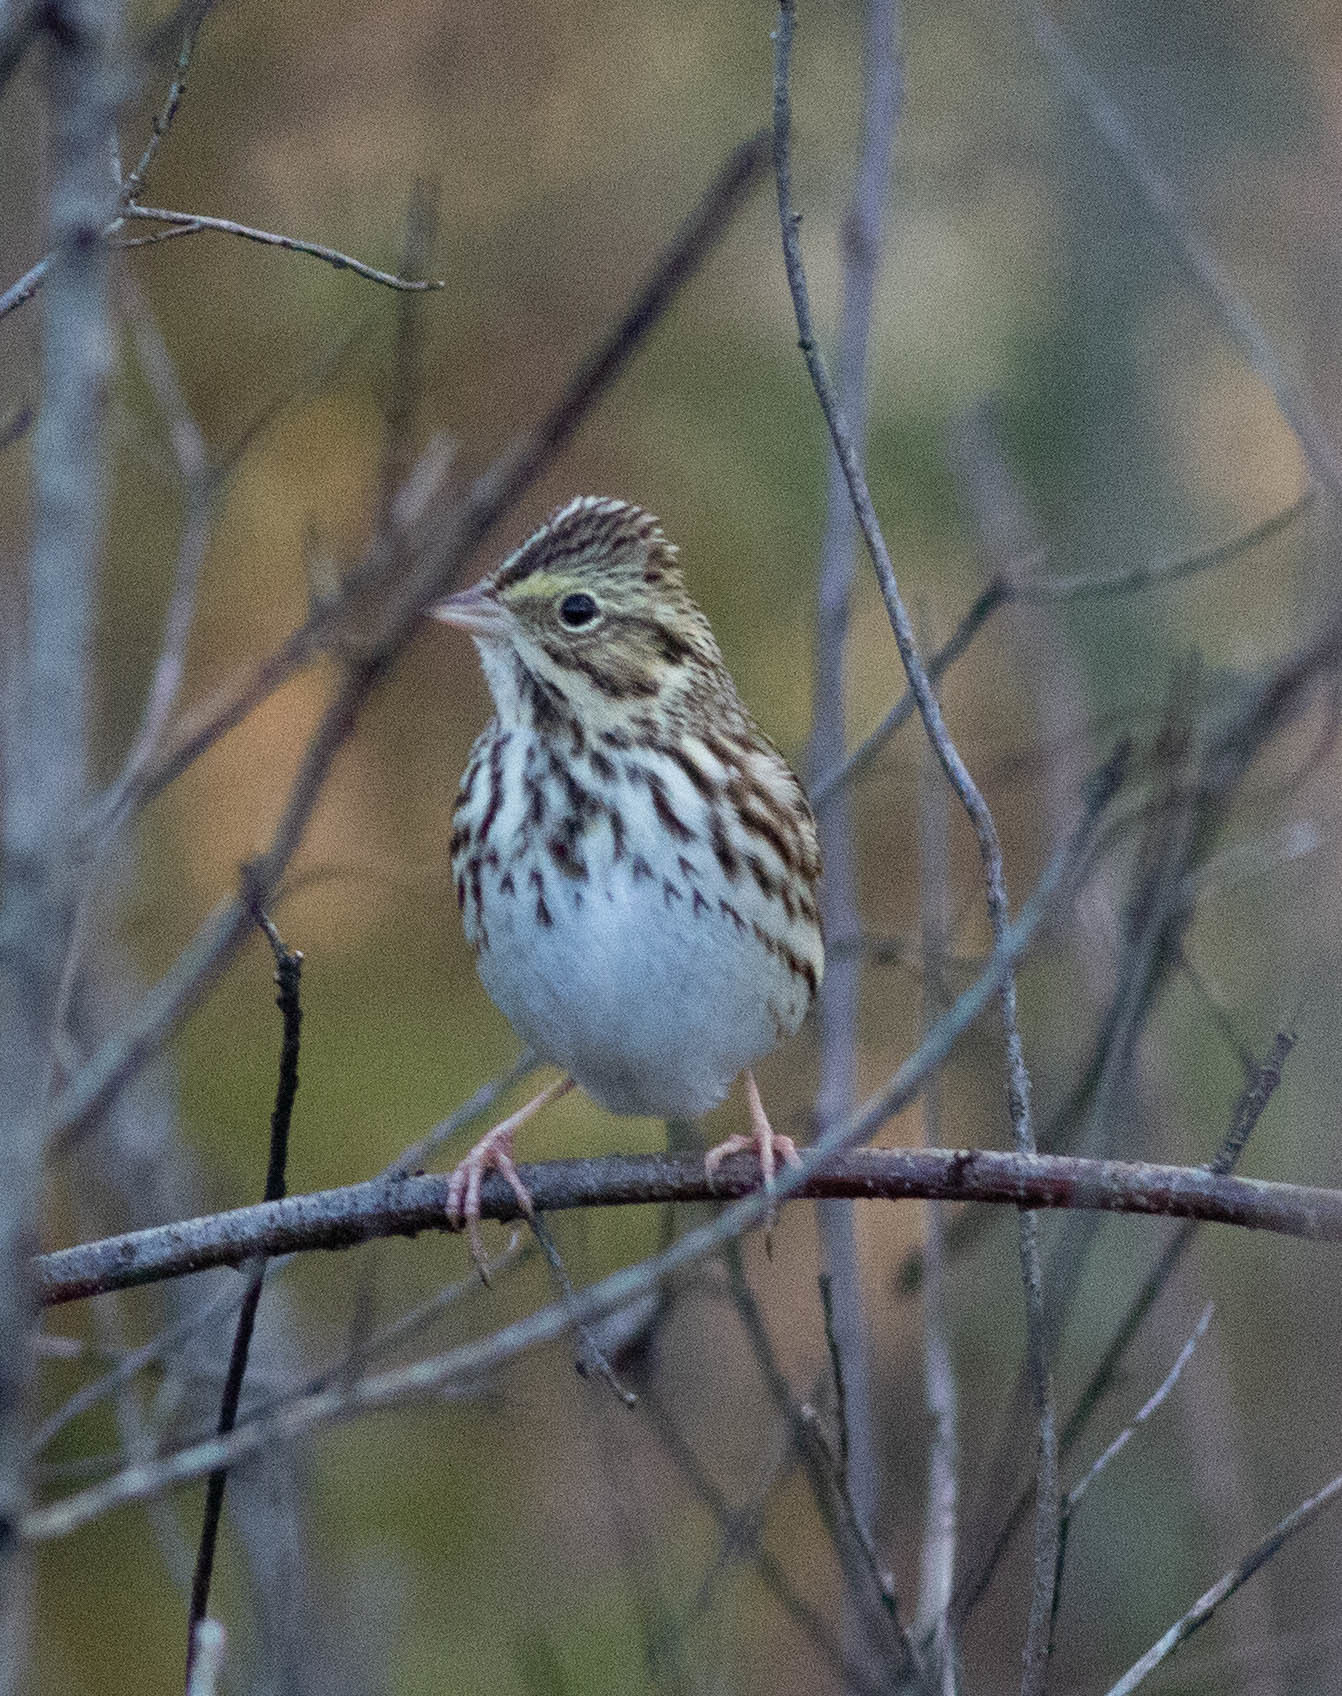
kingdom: Animalia
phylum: Chordata
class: Aves
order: Passeriformes
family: Passerellidae
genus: Passerculus
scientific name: Passerculus sandwichensis
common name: Savannah sparrow
